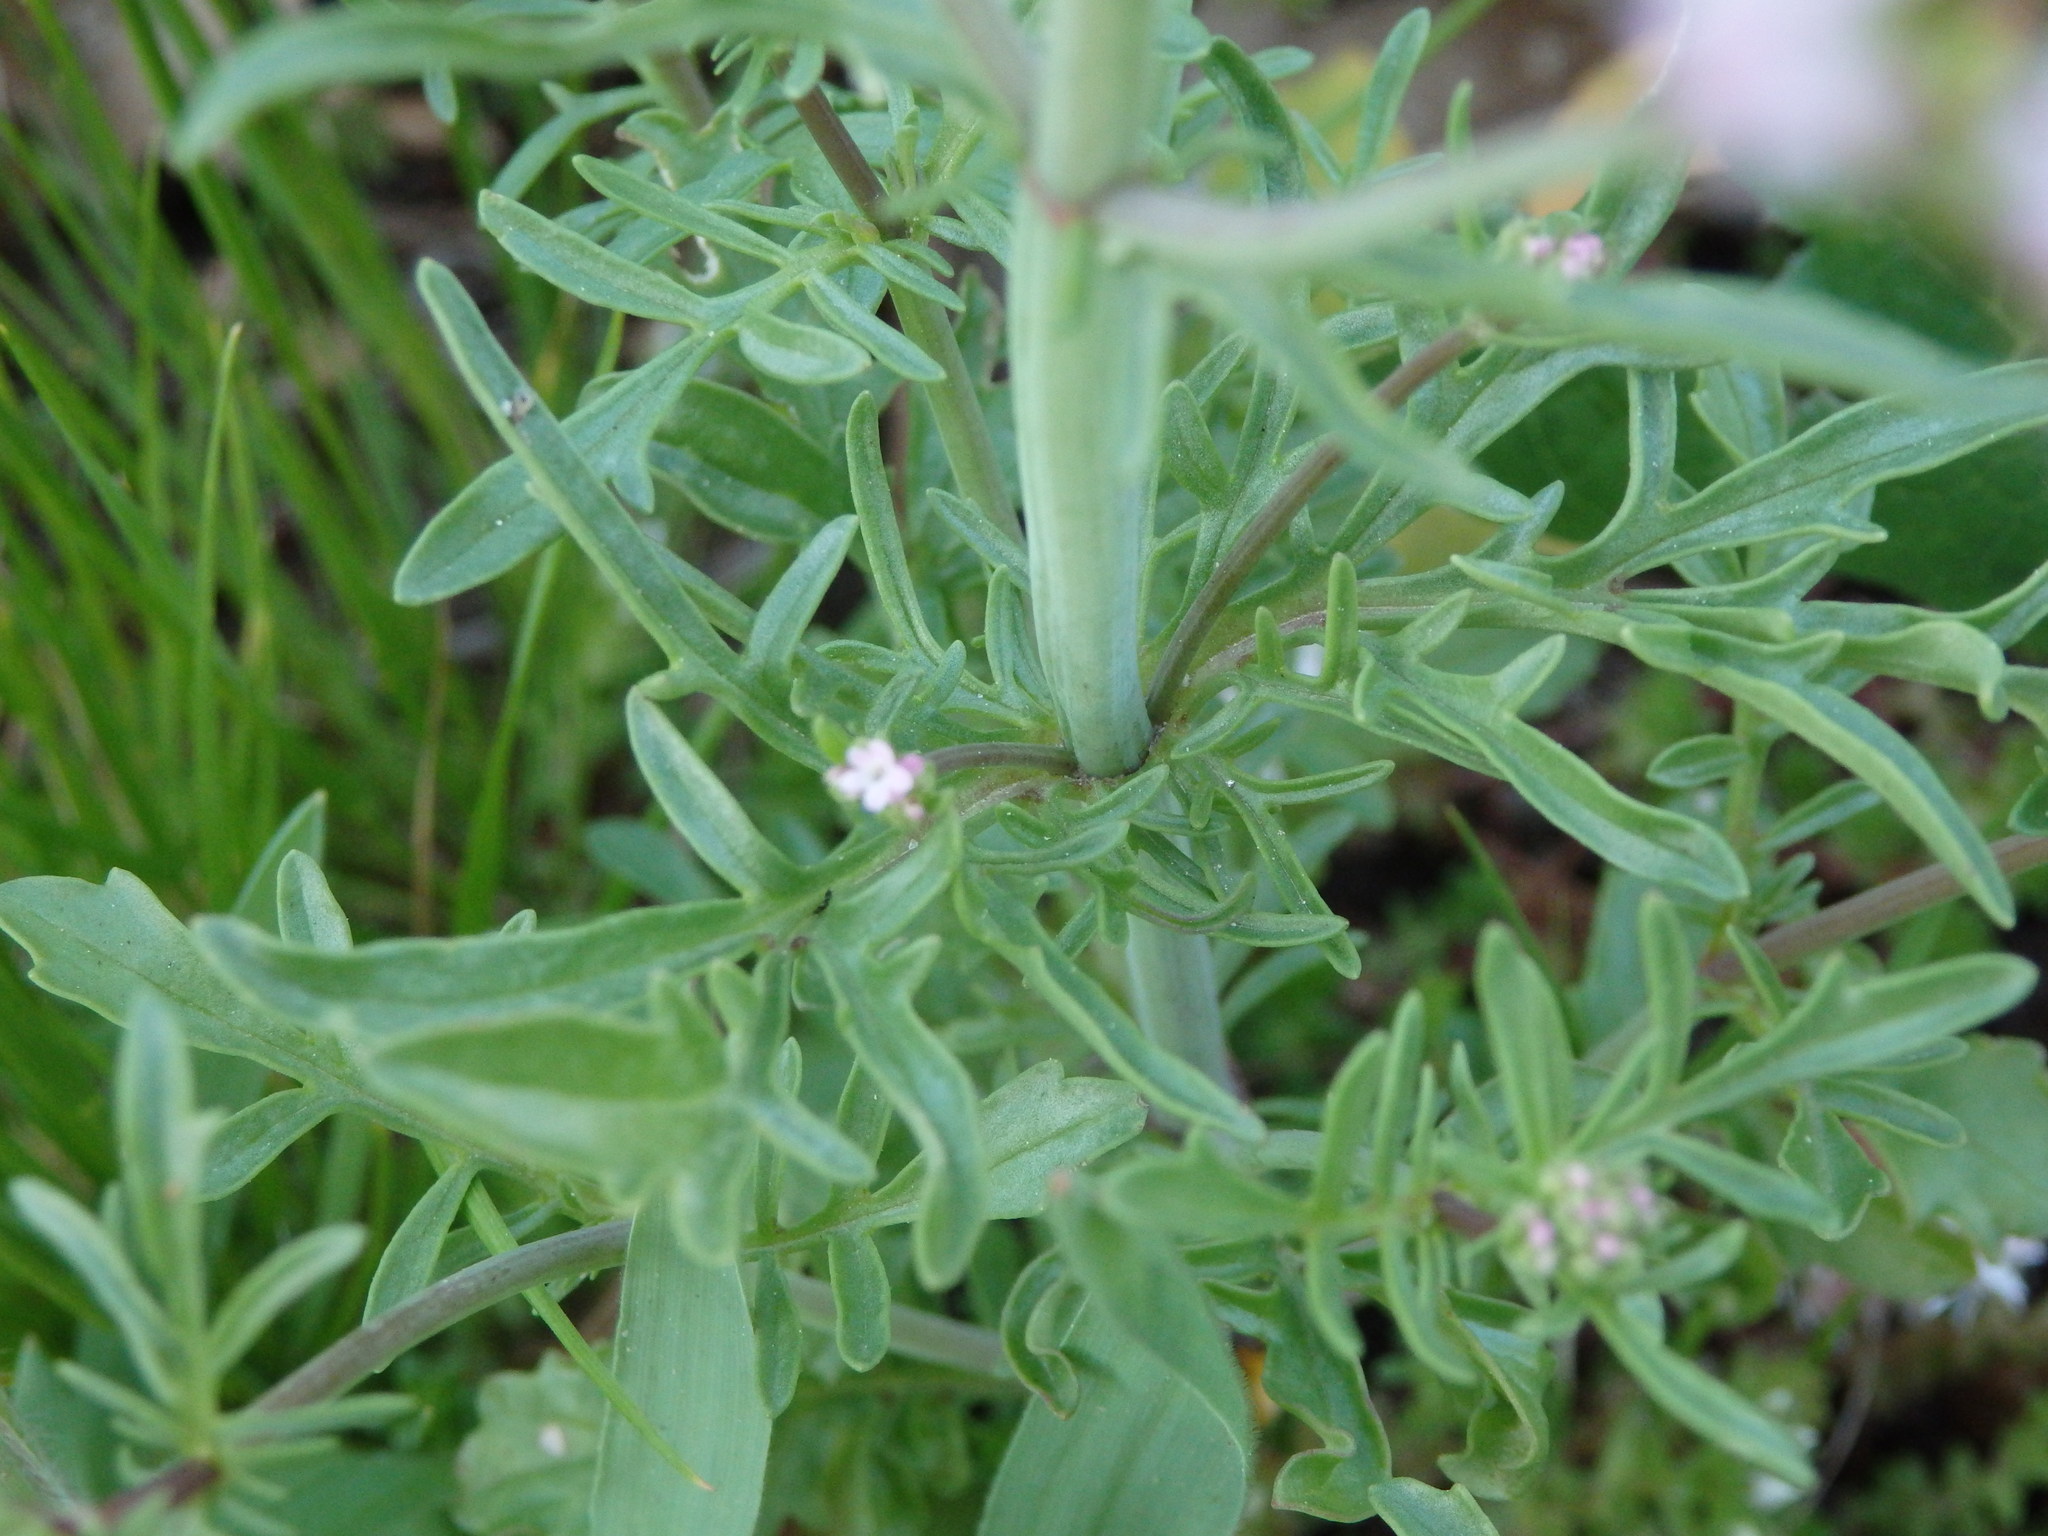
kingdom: Plantae
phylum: Tracheophyta
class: Magnoliopsida
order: Dipsacales
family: Caprifoliaceae
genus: Centranthus
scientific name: Centranthus calcitrapae
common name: Annual valerian
